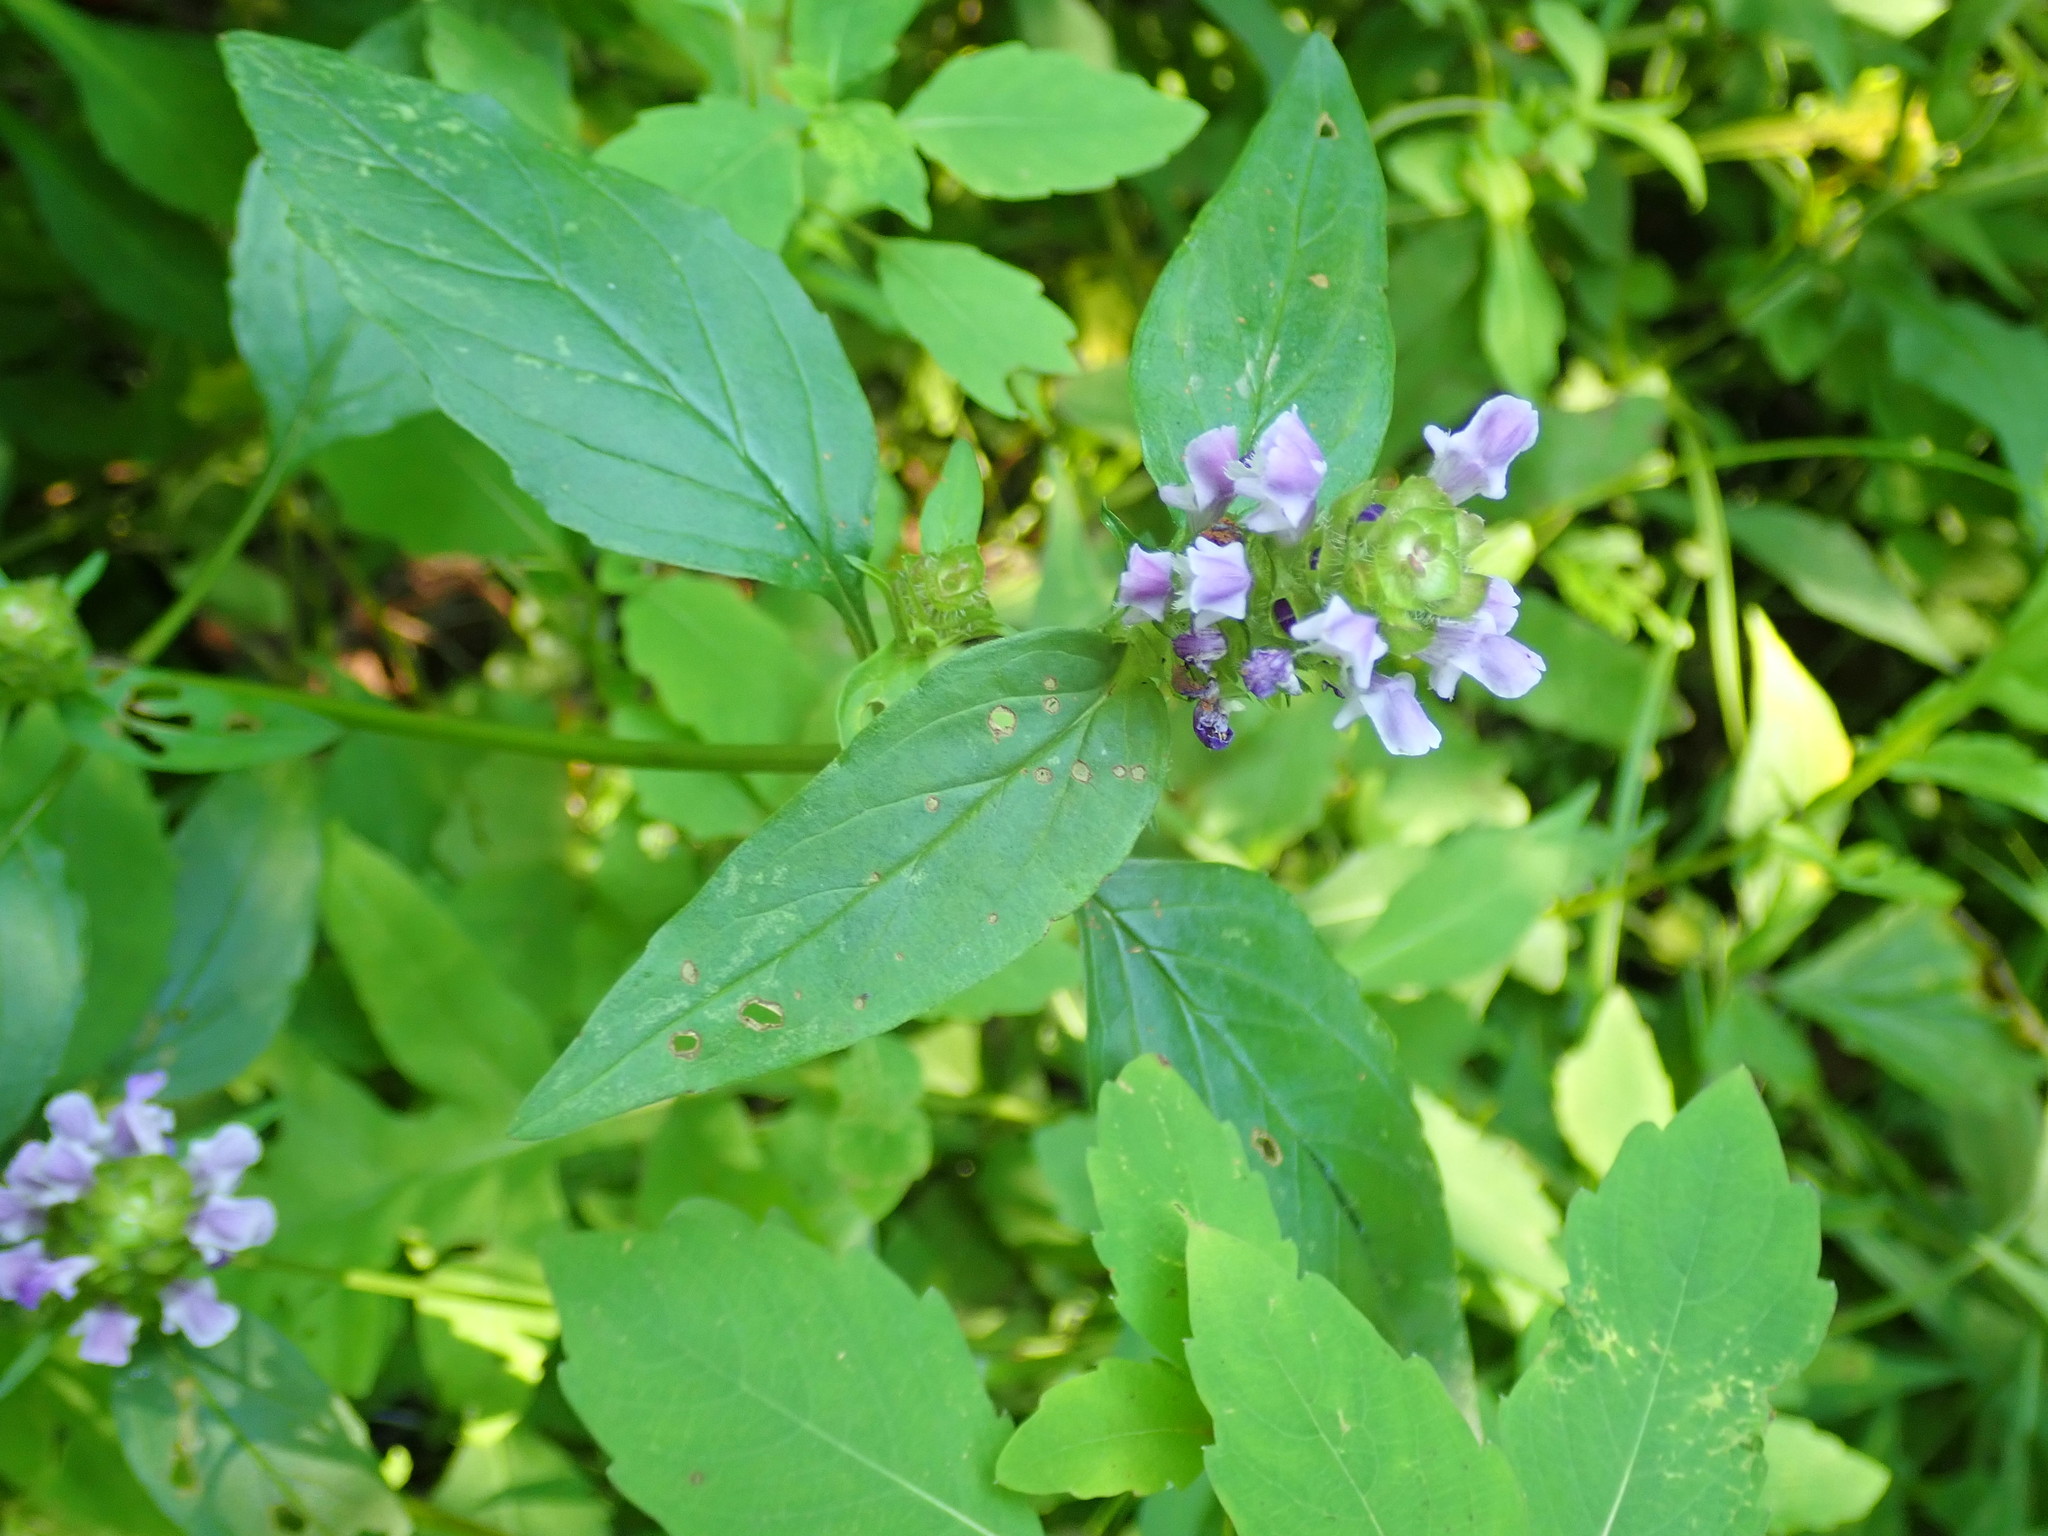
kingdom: Plantae
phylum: Tracheophyta
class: Magnoliopsida
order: Lamiales
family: Lamiaceae
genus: Prunella
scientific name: Prunella vulgaris
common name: Heal-all
